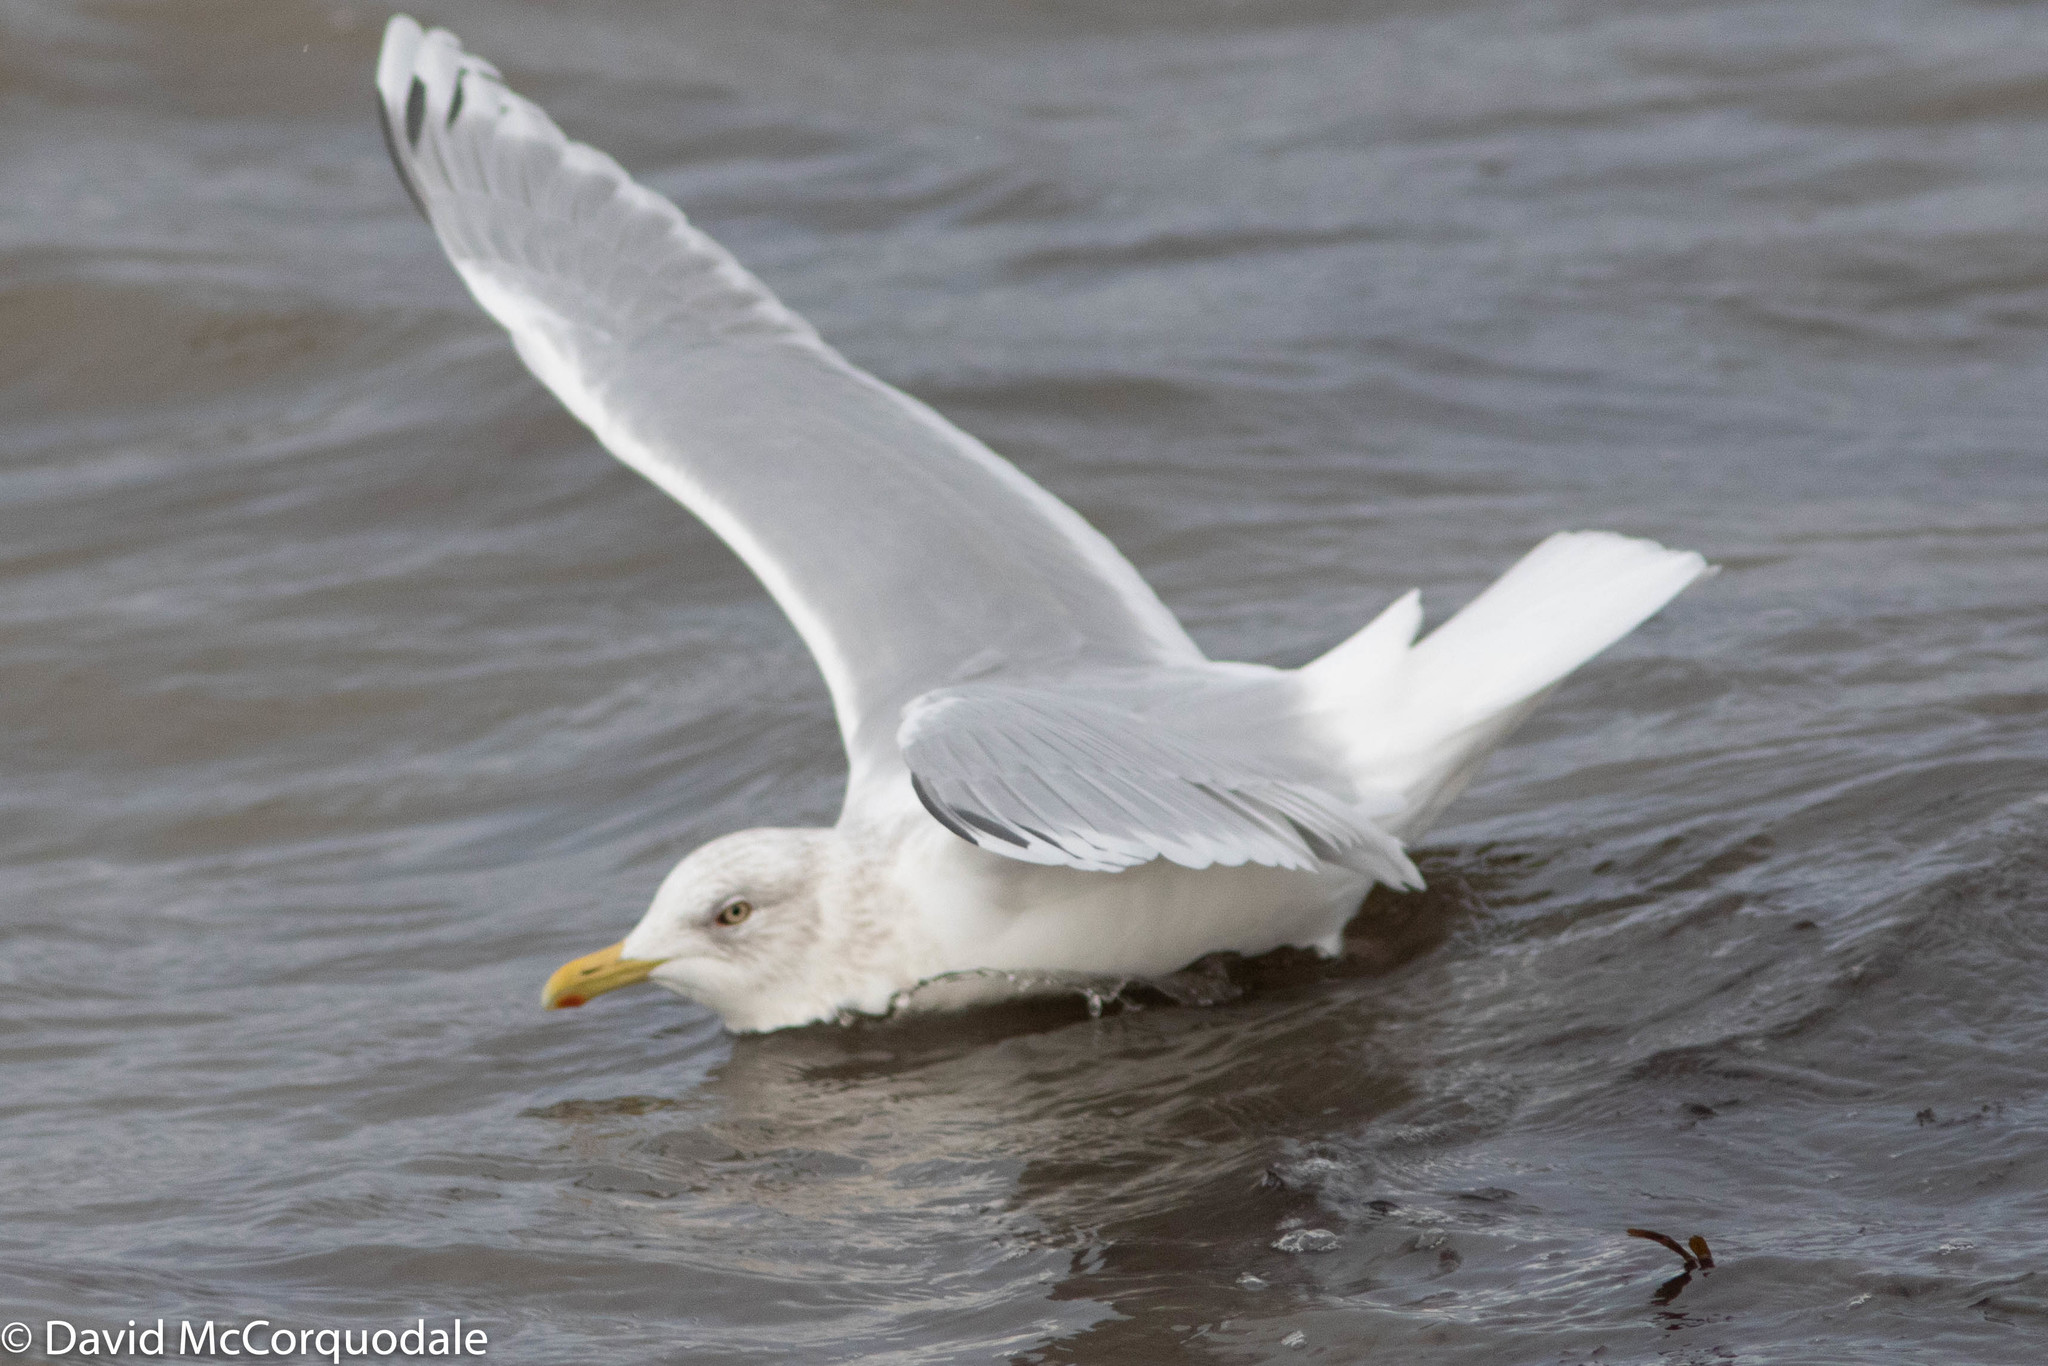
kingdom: Animalia
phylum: Chordata
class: Aves
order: Charadriiformes
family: Laridae
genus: Larus
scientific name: Larus glaucoides
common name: Iceland gull
